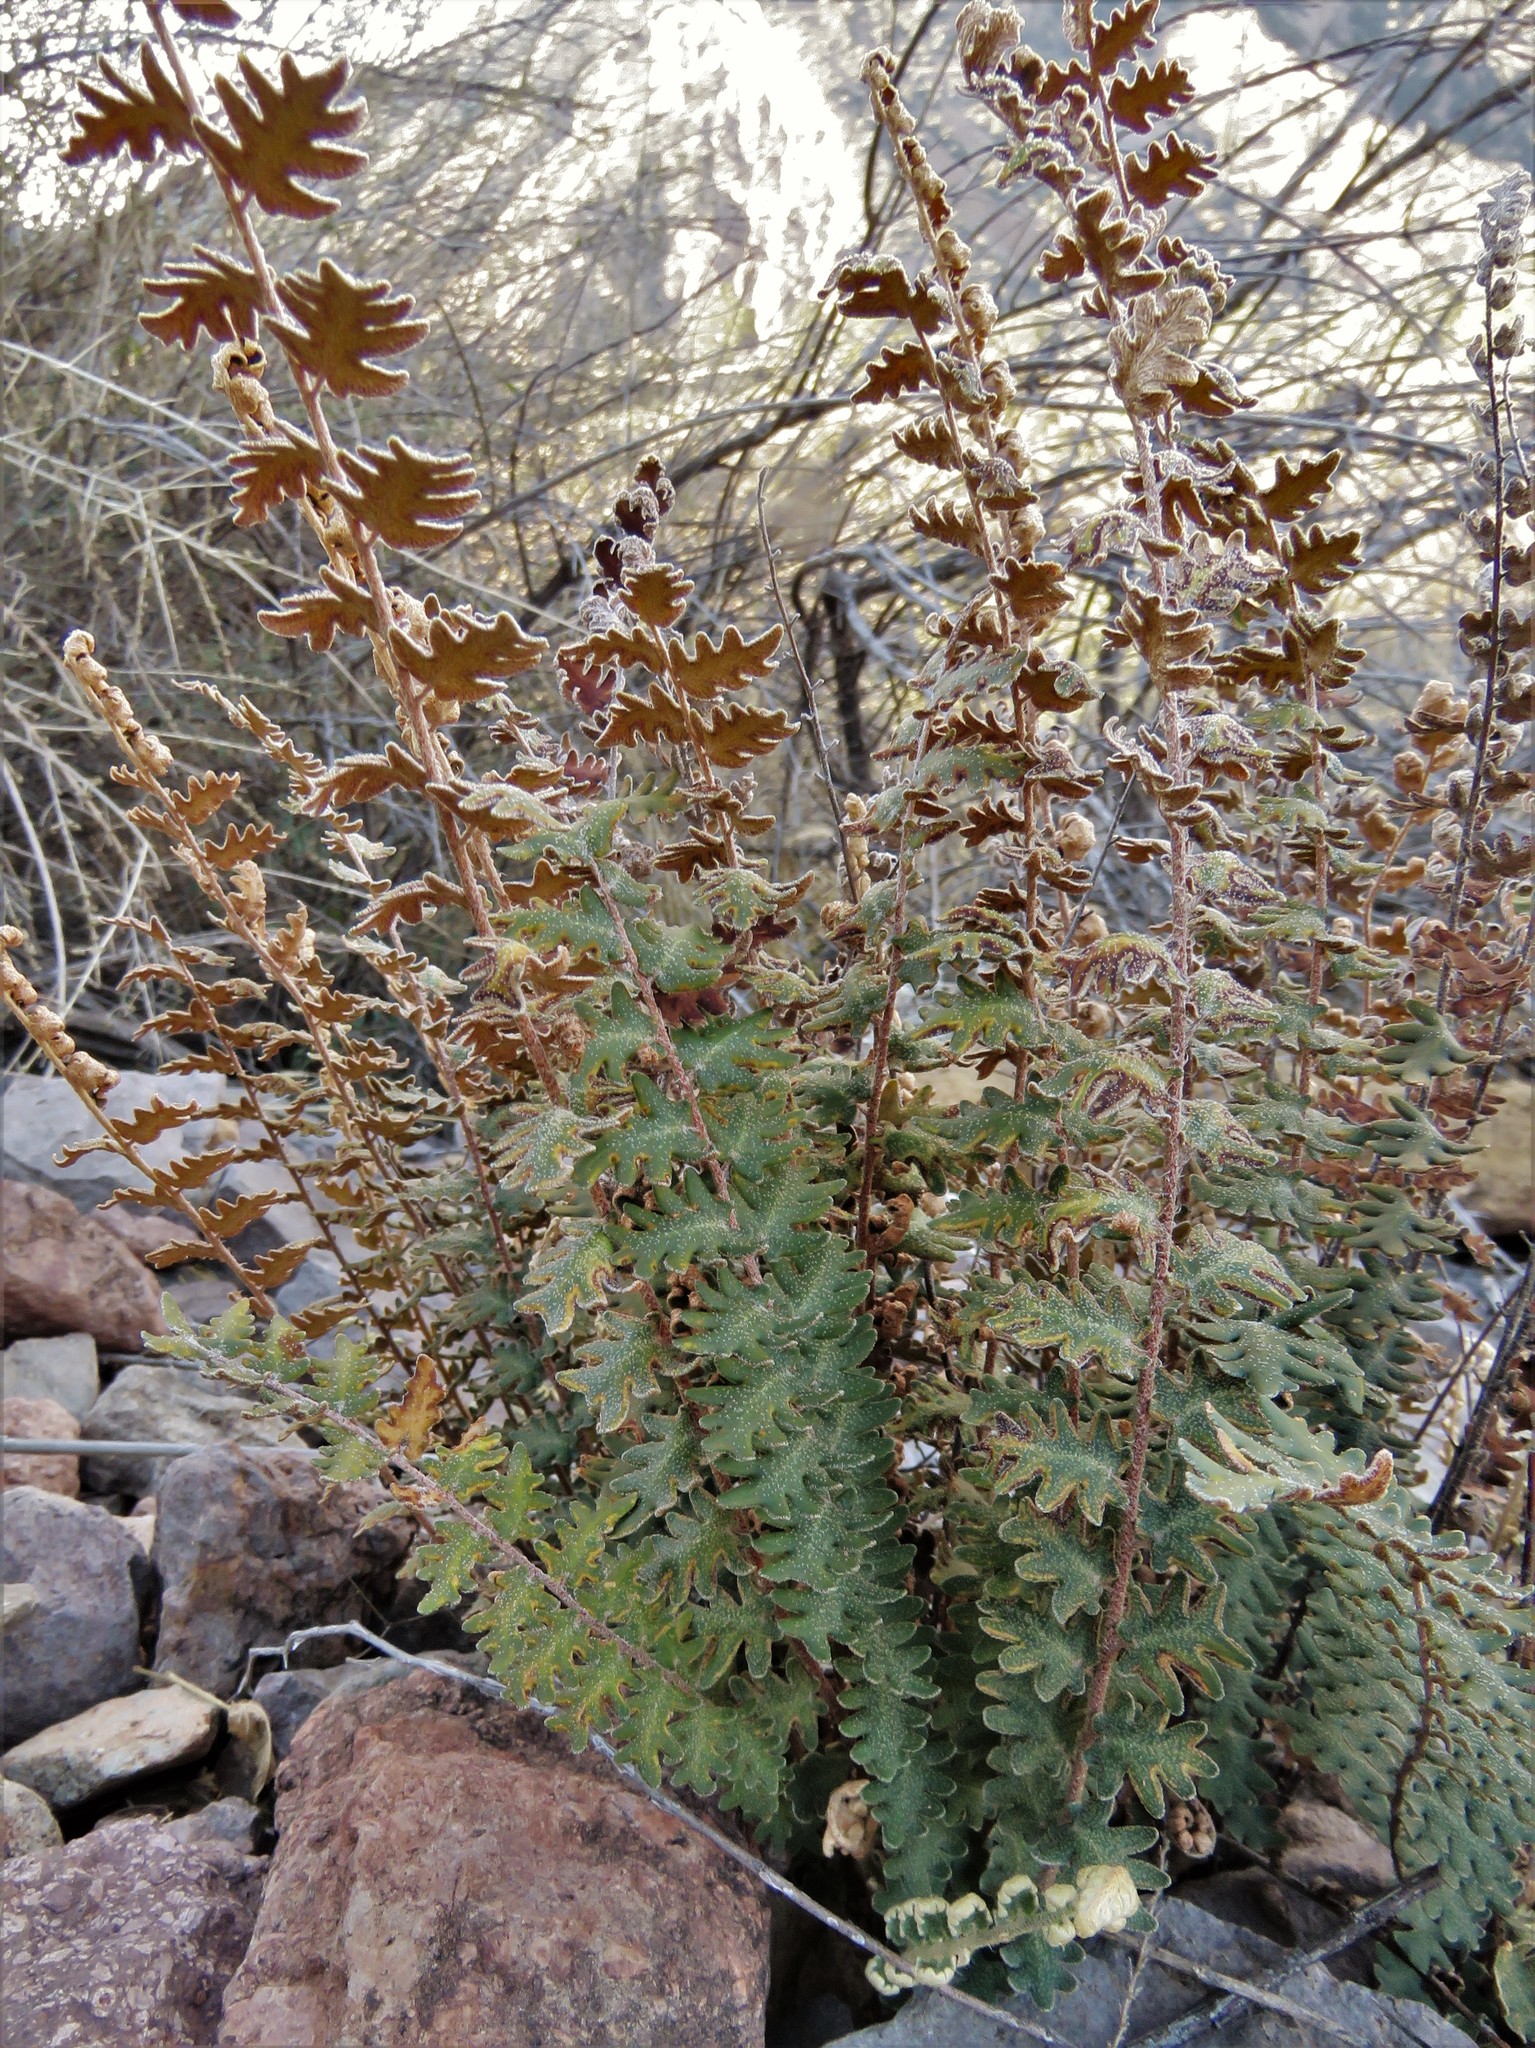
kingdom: Plantae
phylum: Tracheophyta
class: Polypodiopsida
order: Polypodiales
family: Pteridaceae
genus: Astrolepis
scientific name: Astrolepis sinuata
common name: Wavy scaly cloakfern
